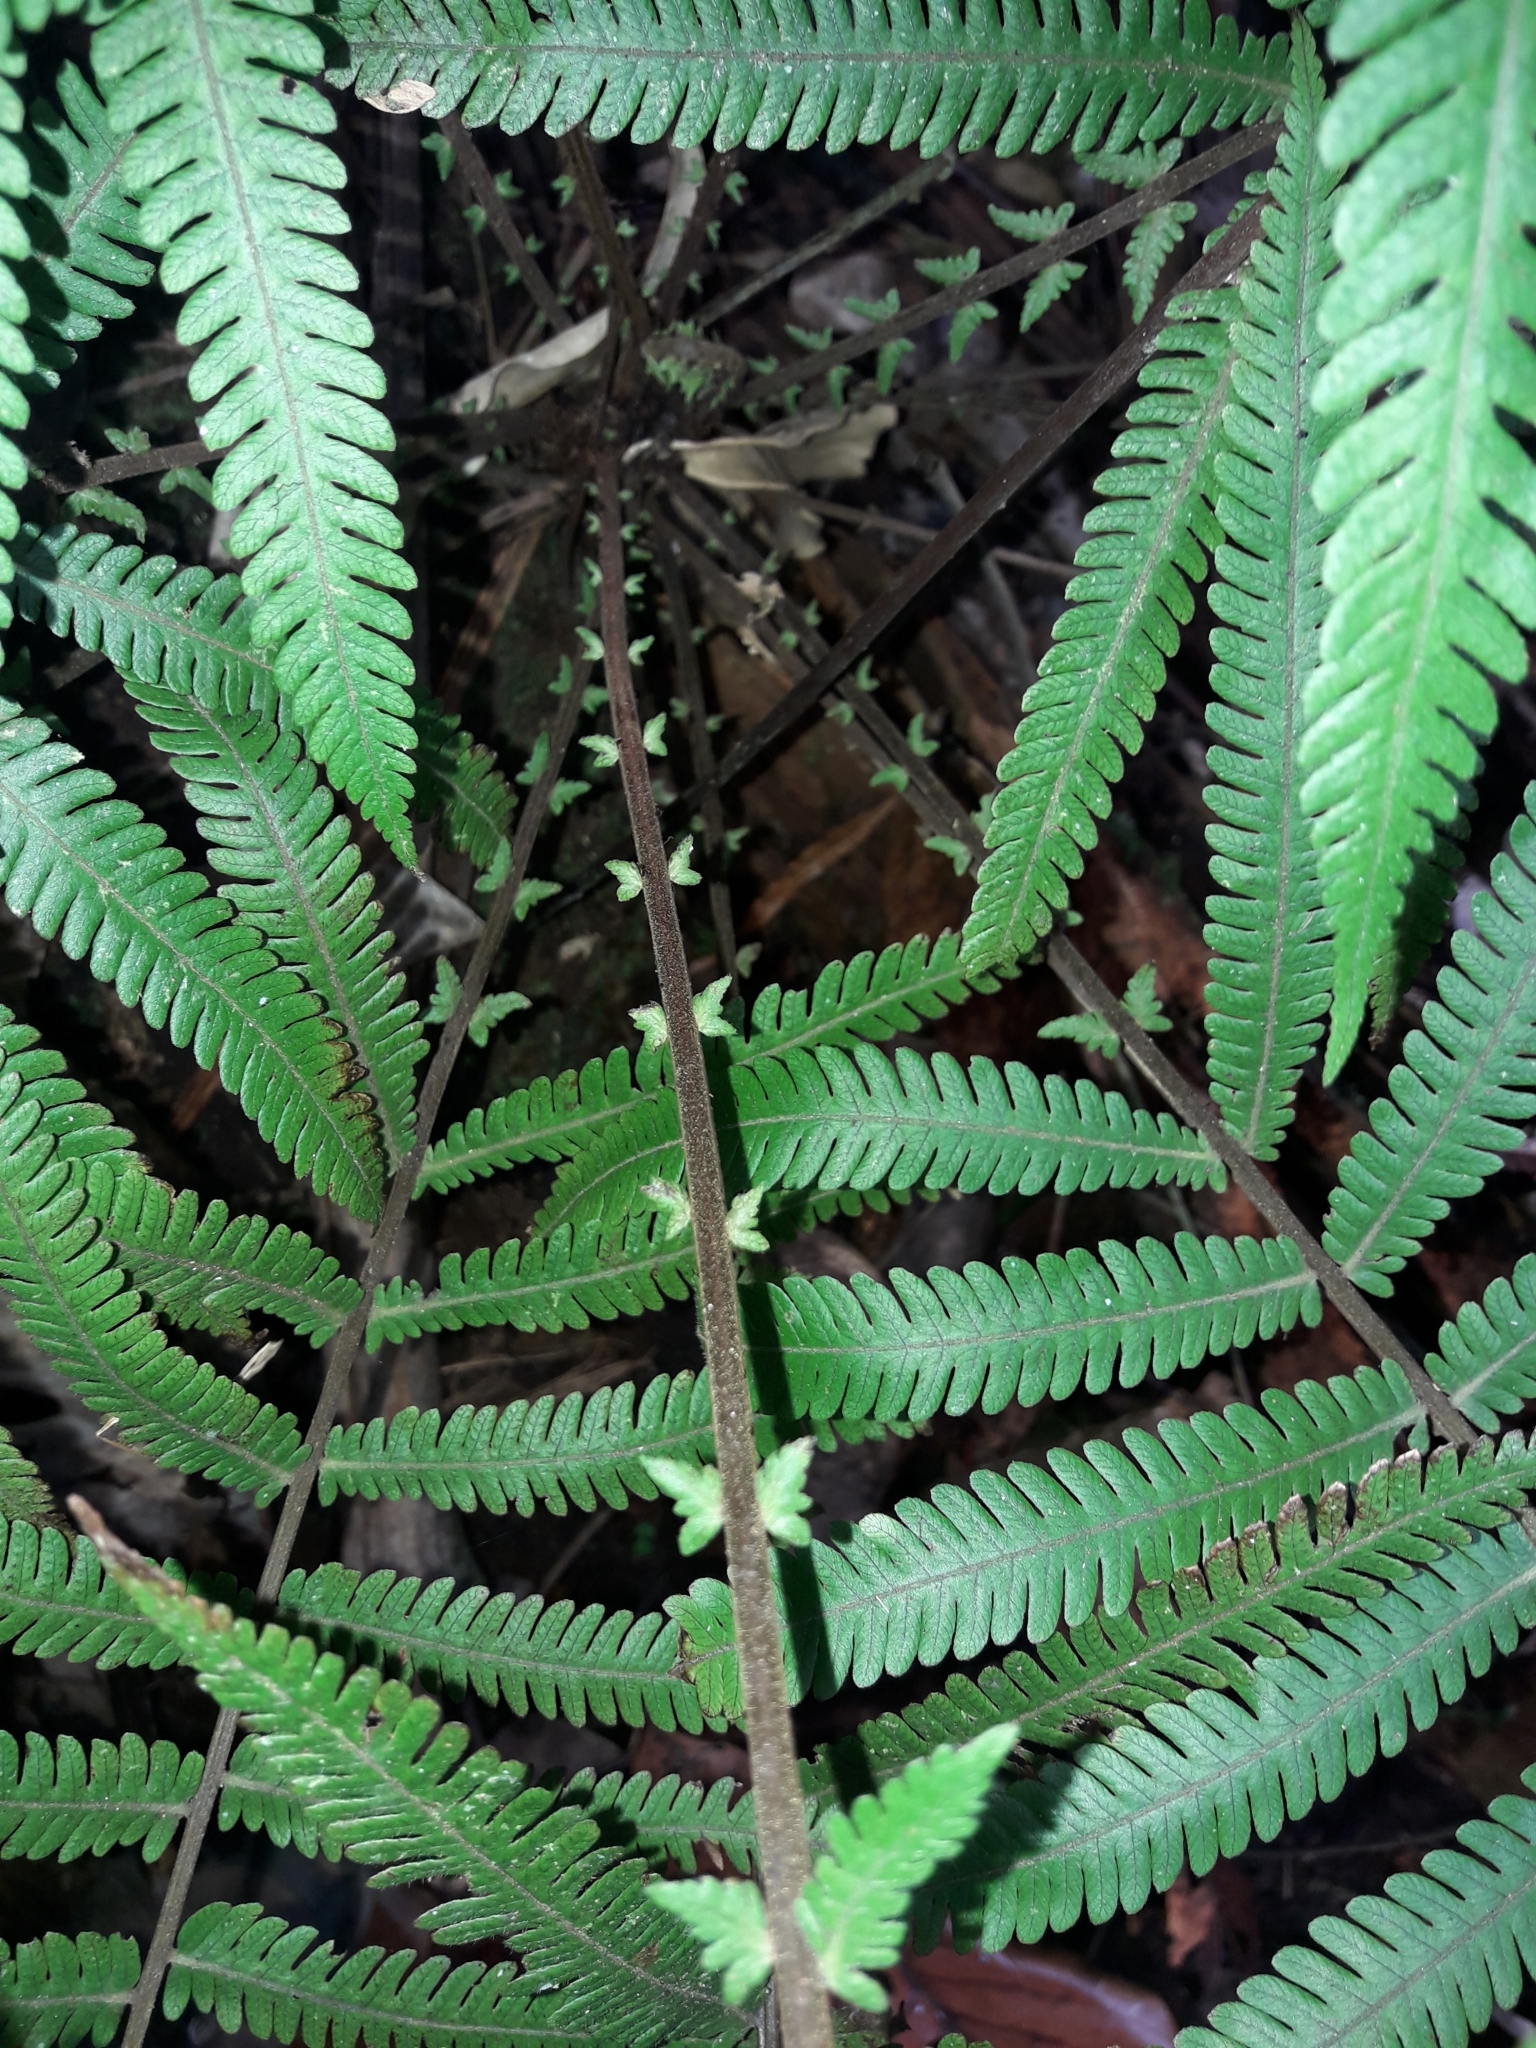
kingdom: Plantae
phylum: Tracheophyta
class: Polypodiopsida
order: Polypodiales
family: Thelypteridaceae
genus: Sphaerostephanos
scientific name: Sphaerostephanos heterocarpos
